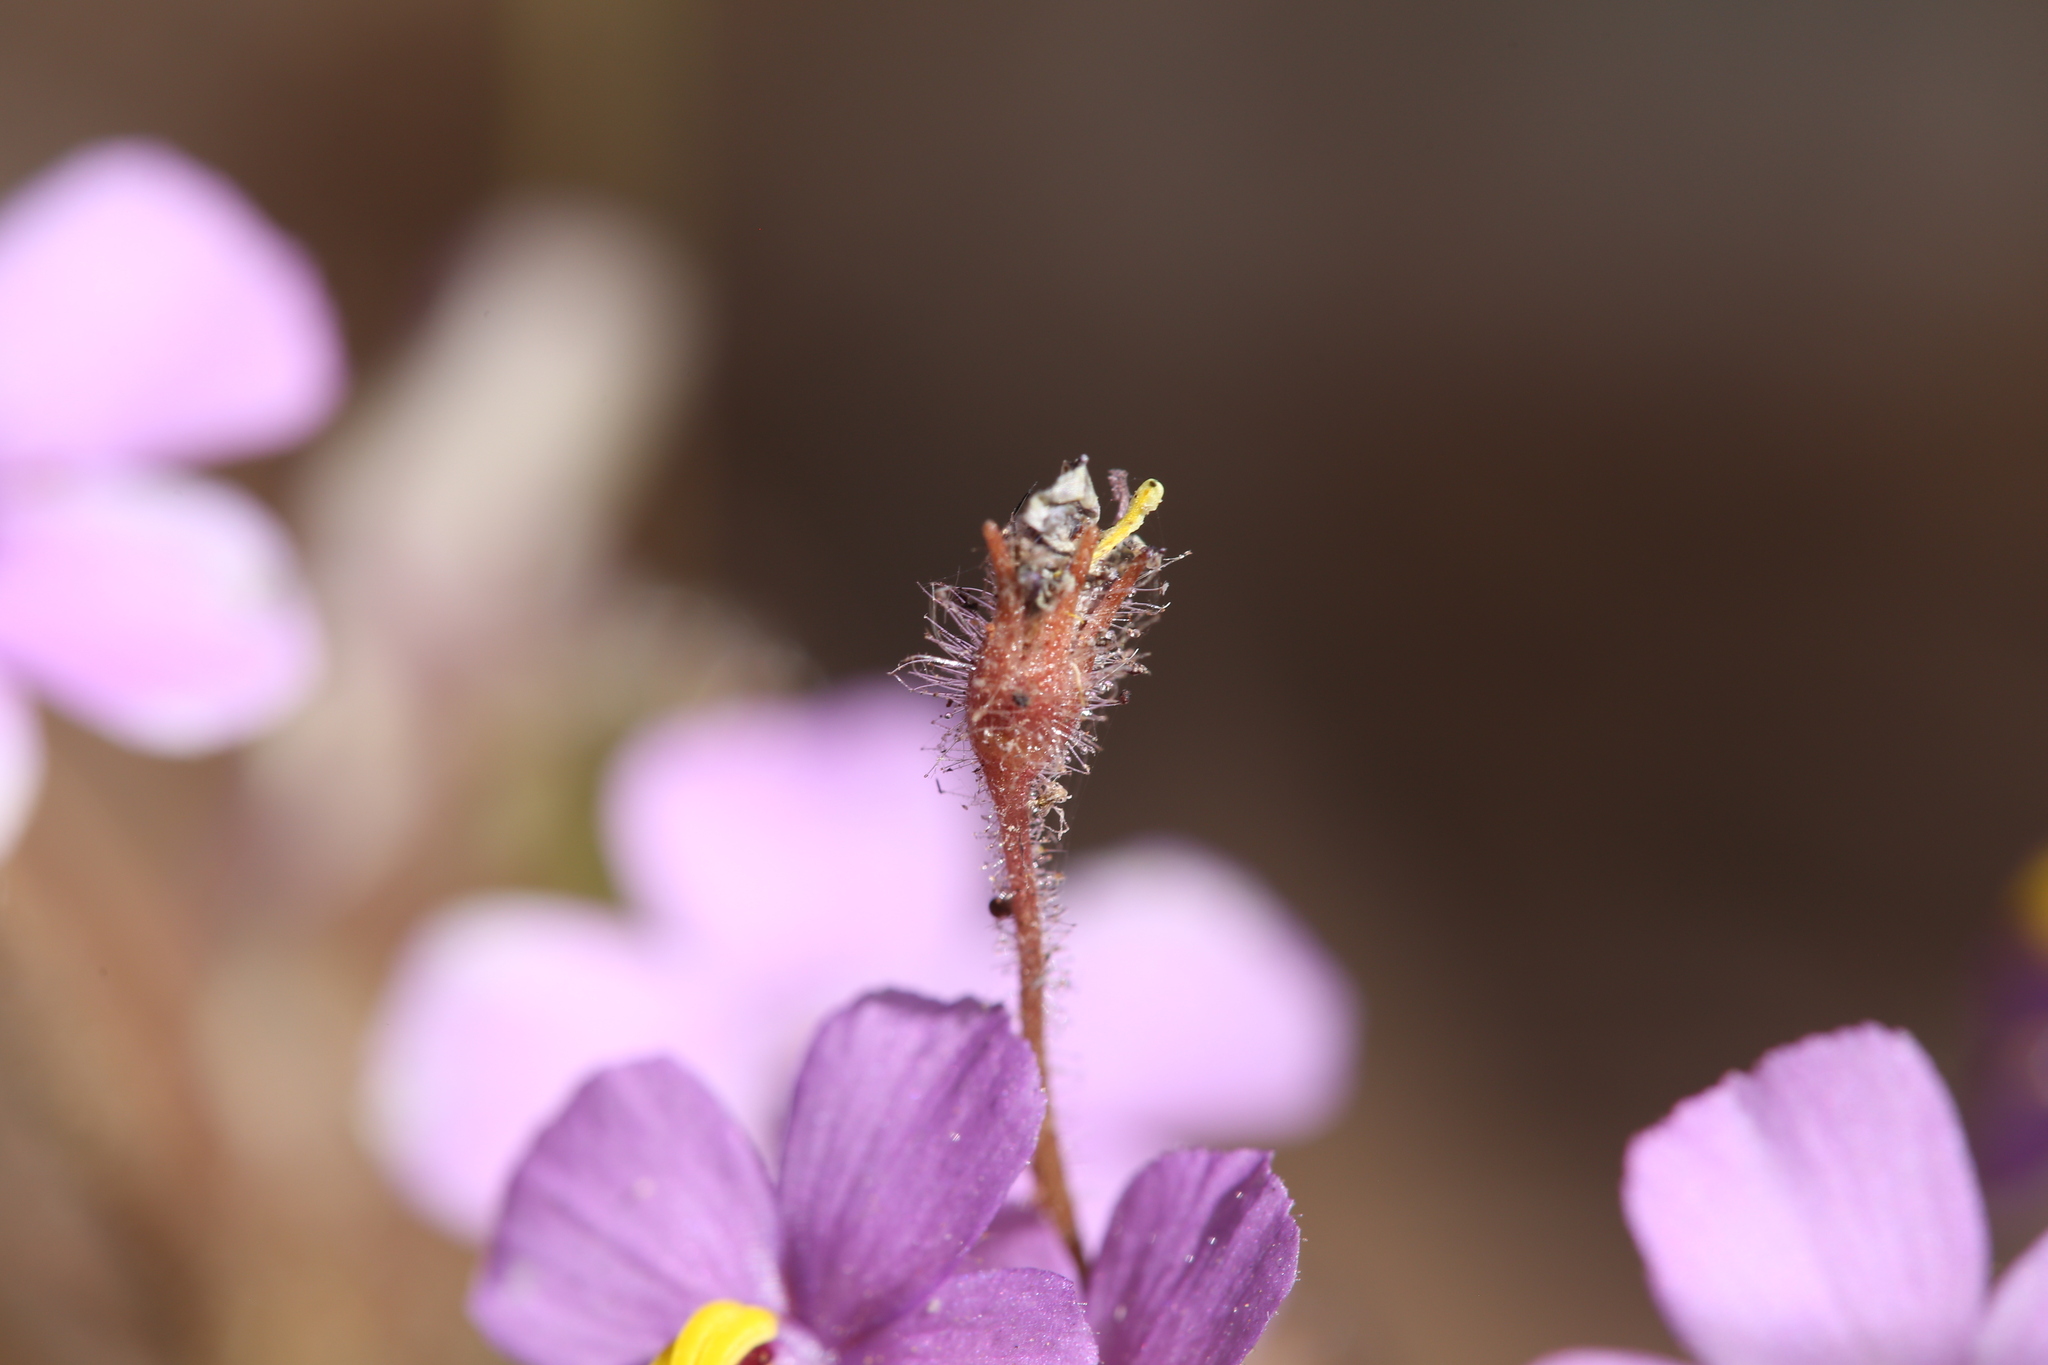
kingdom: Plantae
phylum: Tracheophyta
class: Magnoliopsida
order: Lamiales
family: Byblidaceae
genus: Byblis
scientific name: Byblis filifolia
